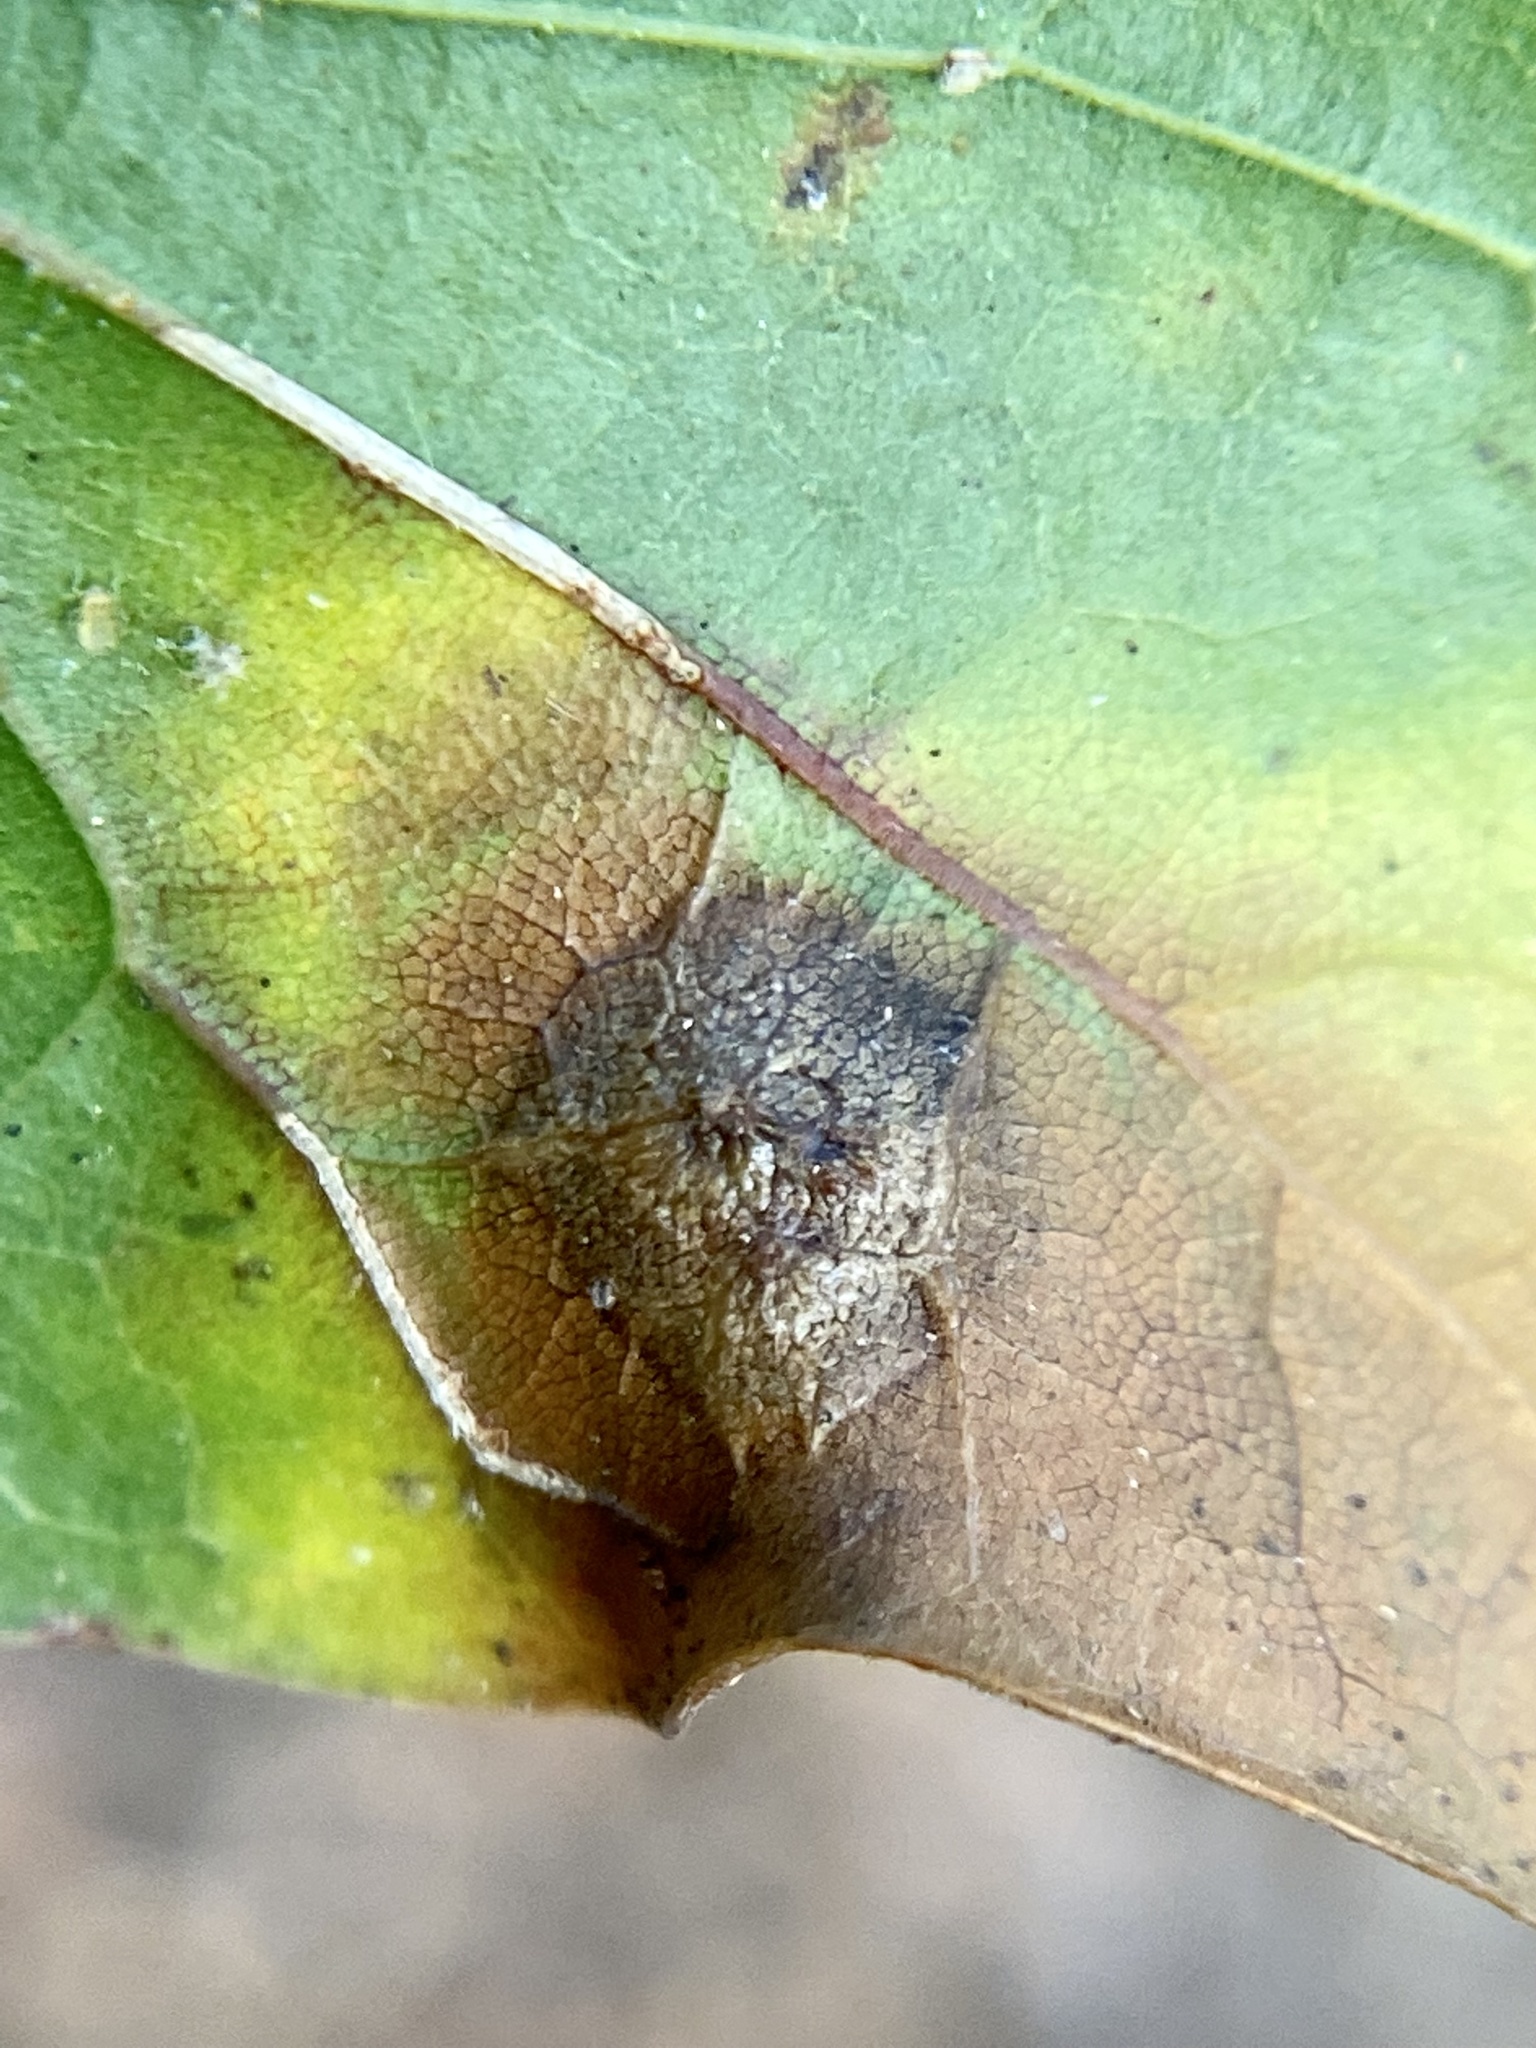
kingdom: Animalia
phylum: Arthropoda
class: Insecta
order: Diptera
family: Cecidomyiidae
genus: Polystepha
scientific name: Polystepha pilulae
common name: Oak leaf gall midge
